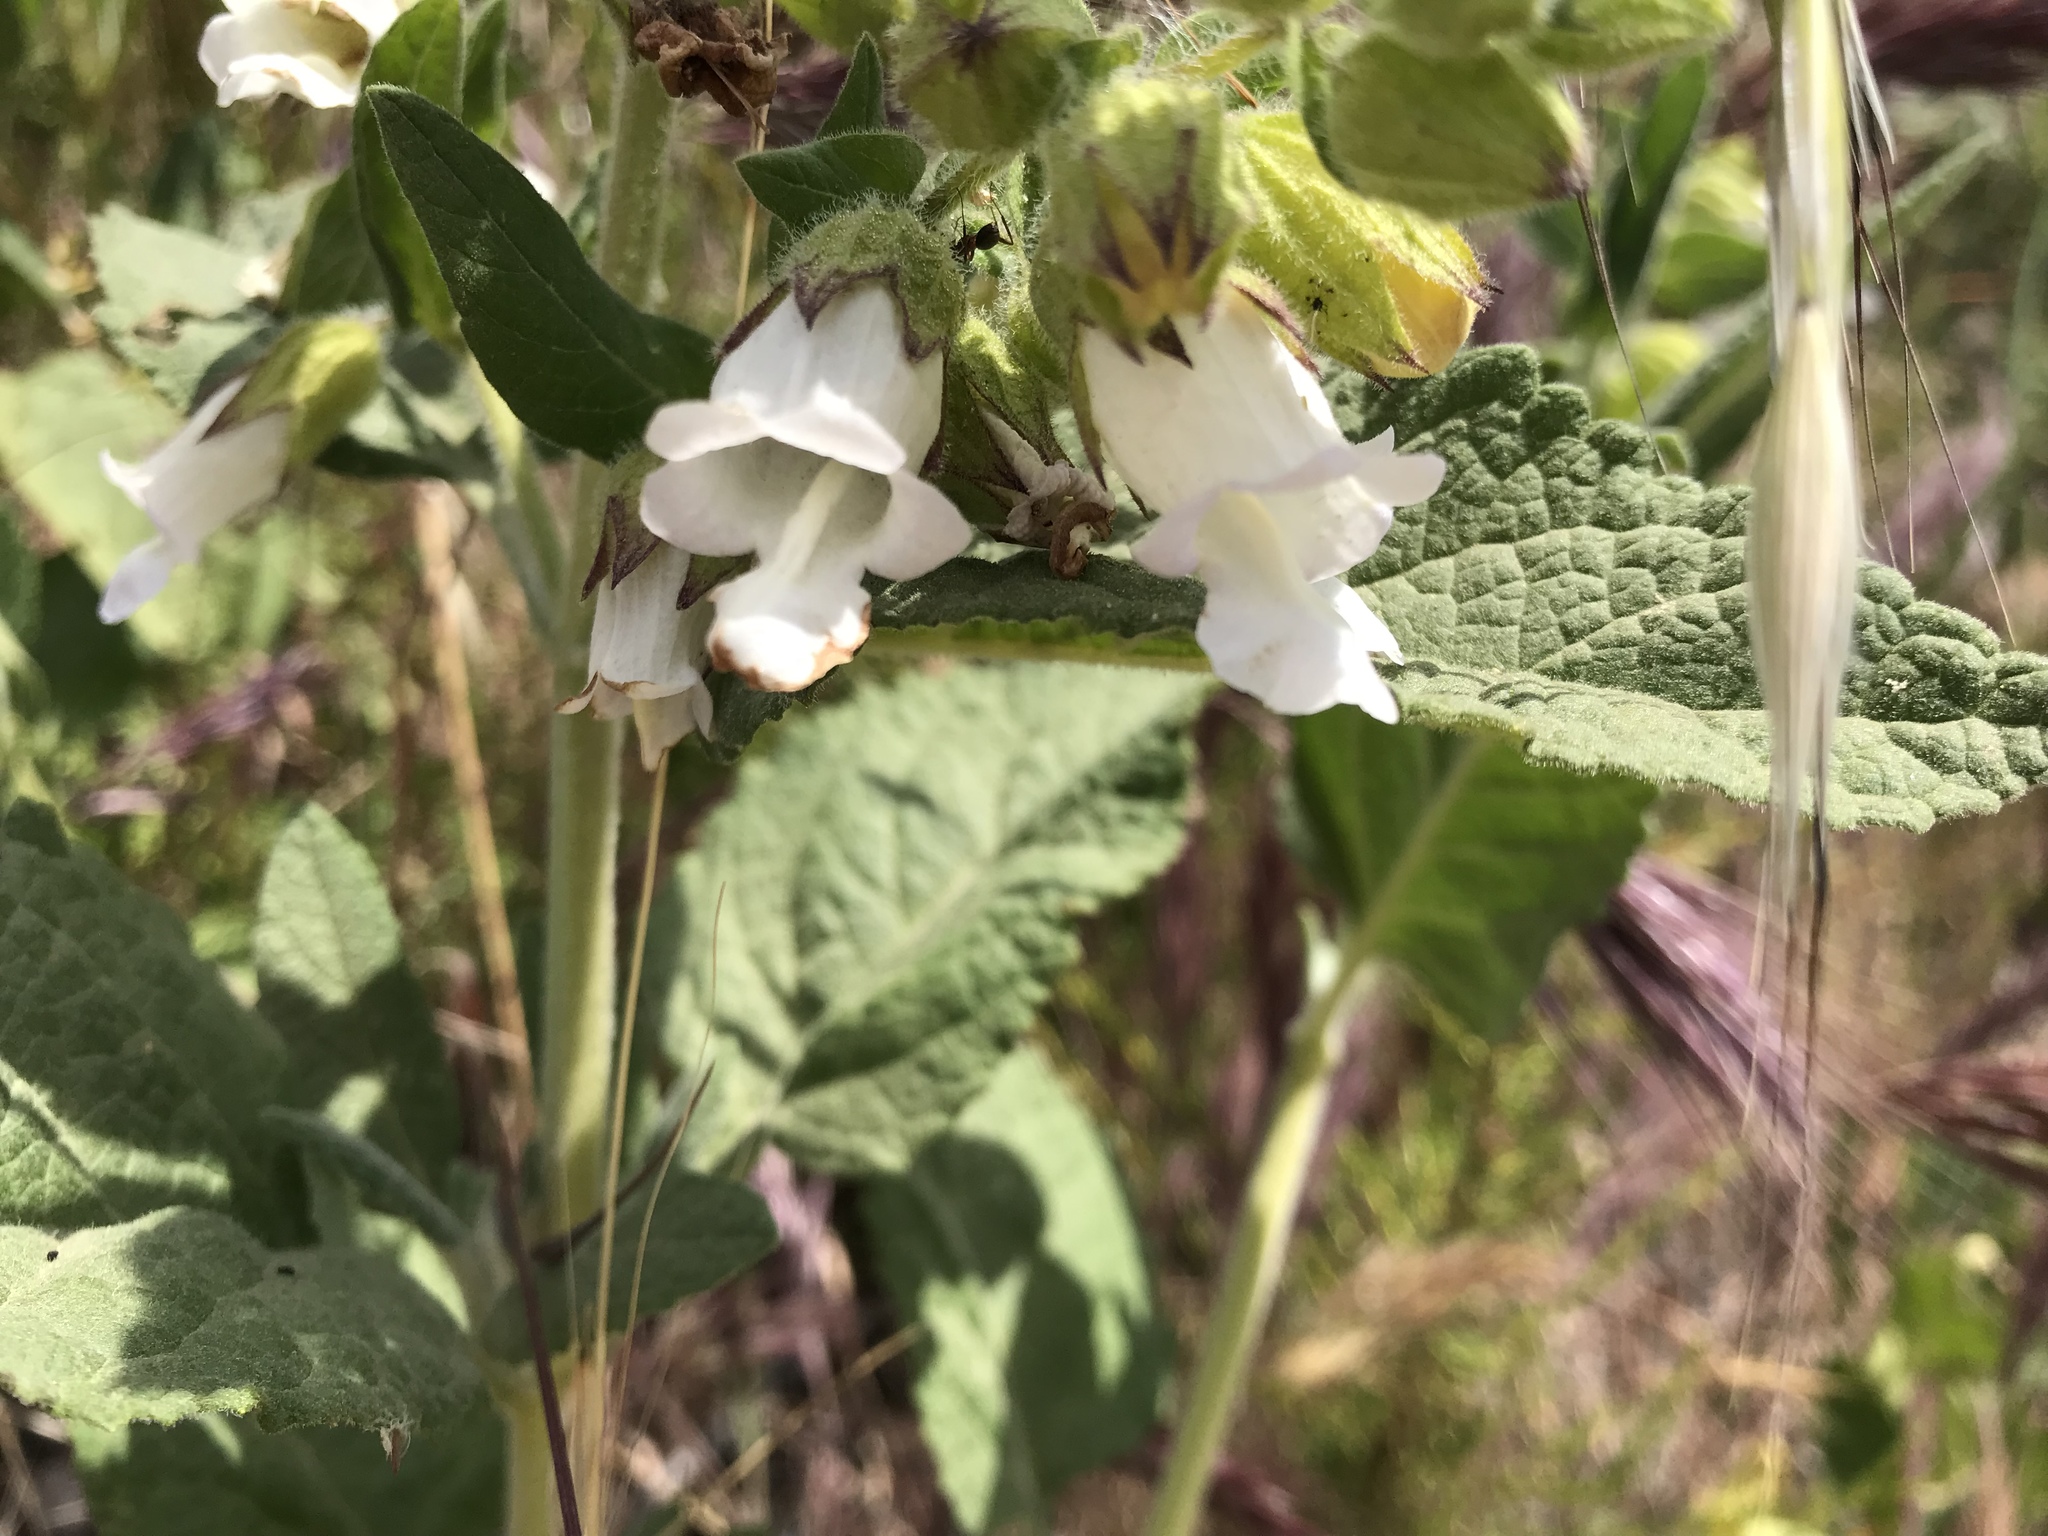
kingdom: Plantae
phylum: Tracheophyta
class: Magnoliopsida
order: Lamiales
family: Lamiaceae
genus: Lepechinia
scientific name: Lepechinia calycina
